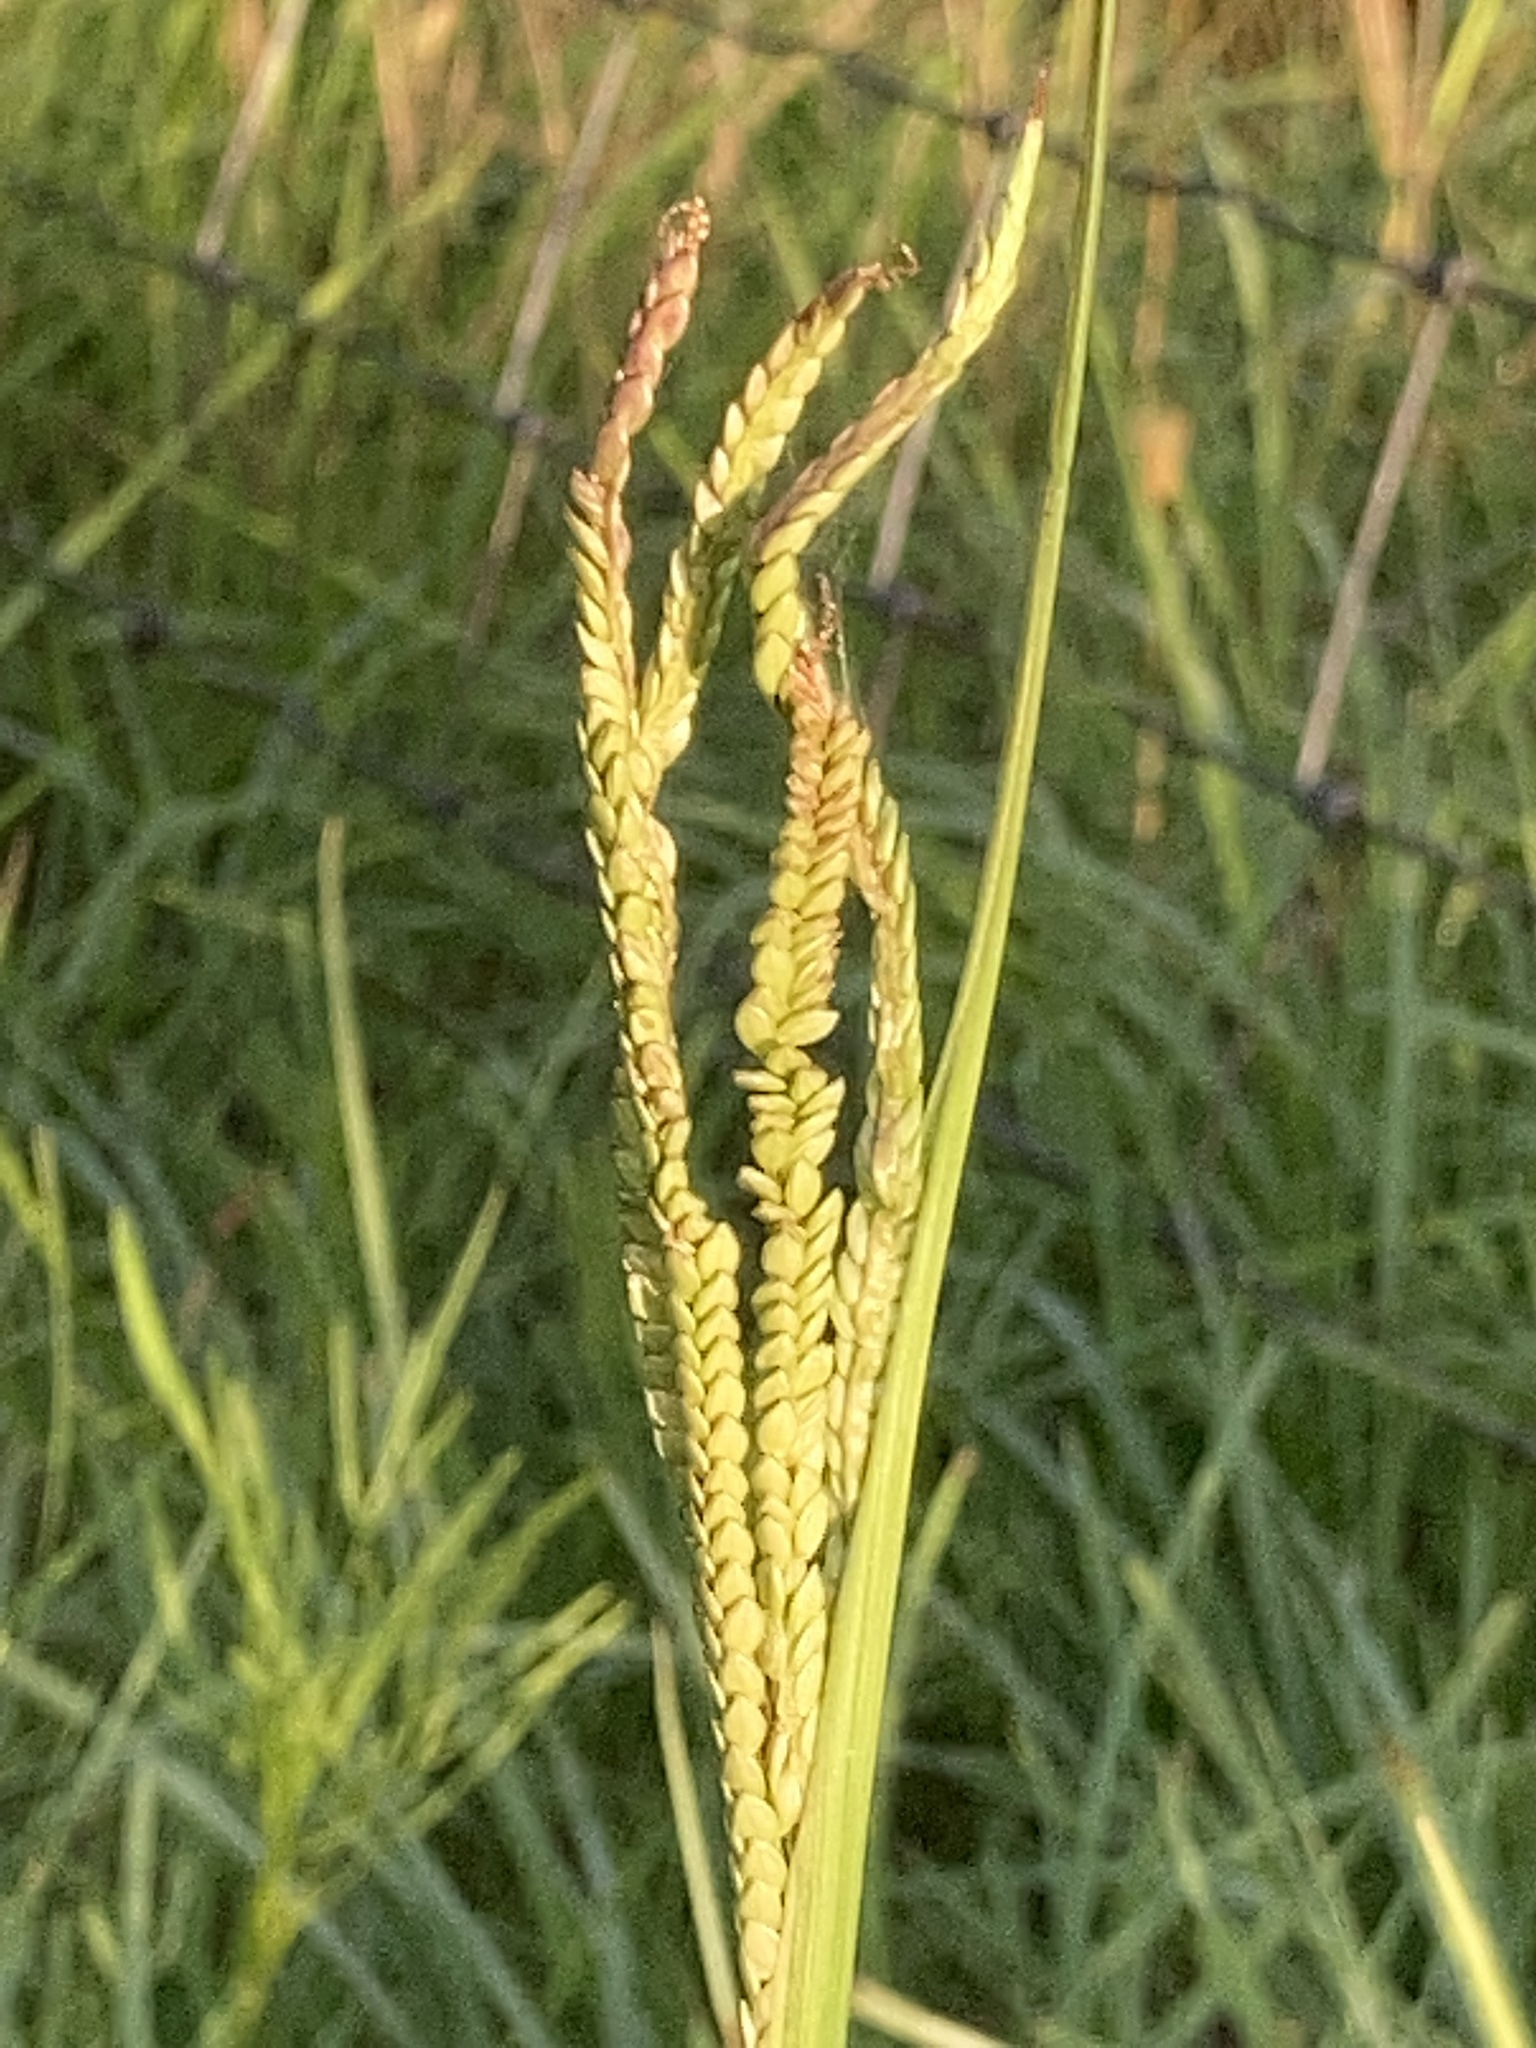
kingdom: Plantae
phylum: Tracheophyta
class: Liliopsida
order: Poales
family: Poaceae
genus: Paspalum
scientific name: Paspalum notatum
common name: Bahiagrass
